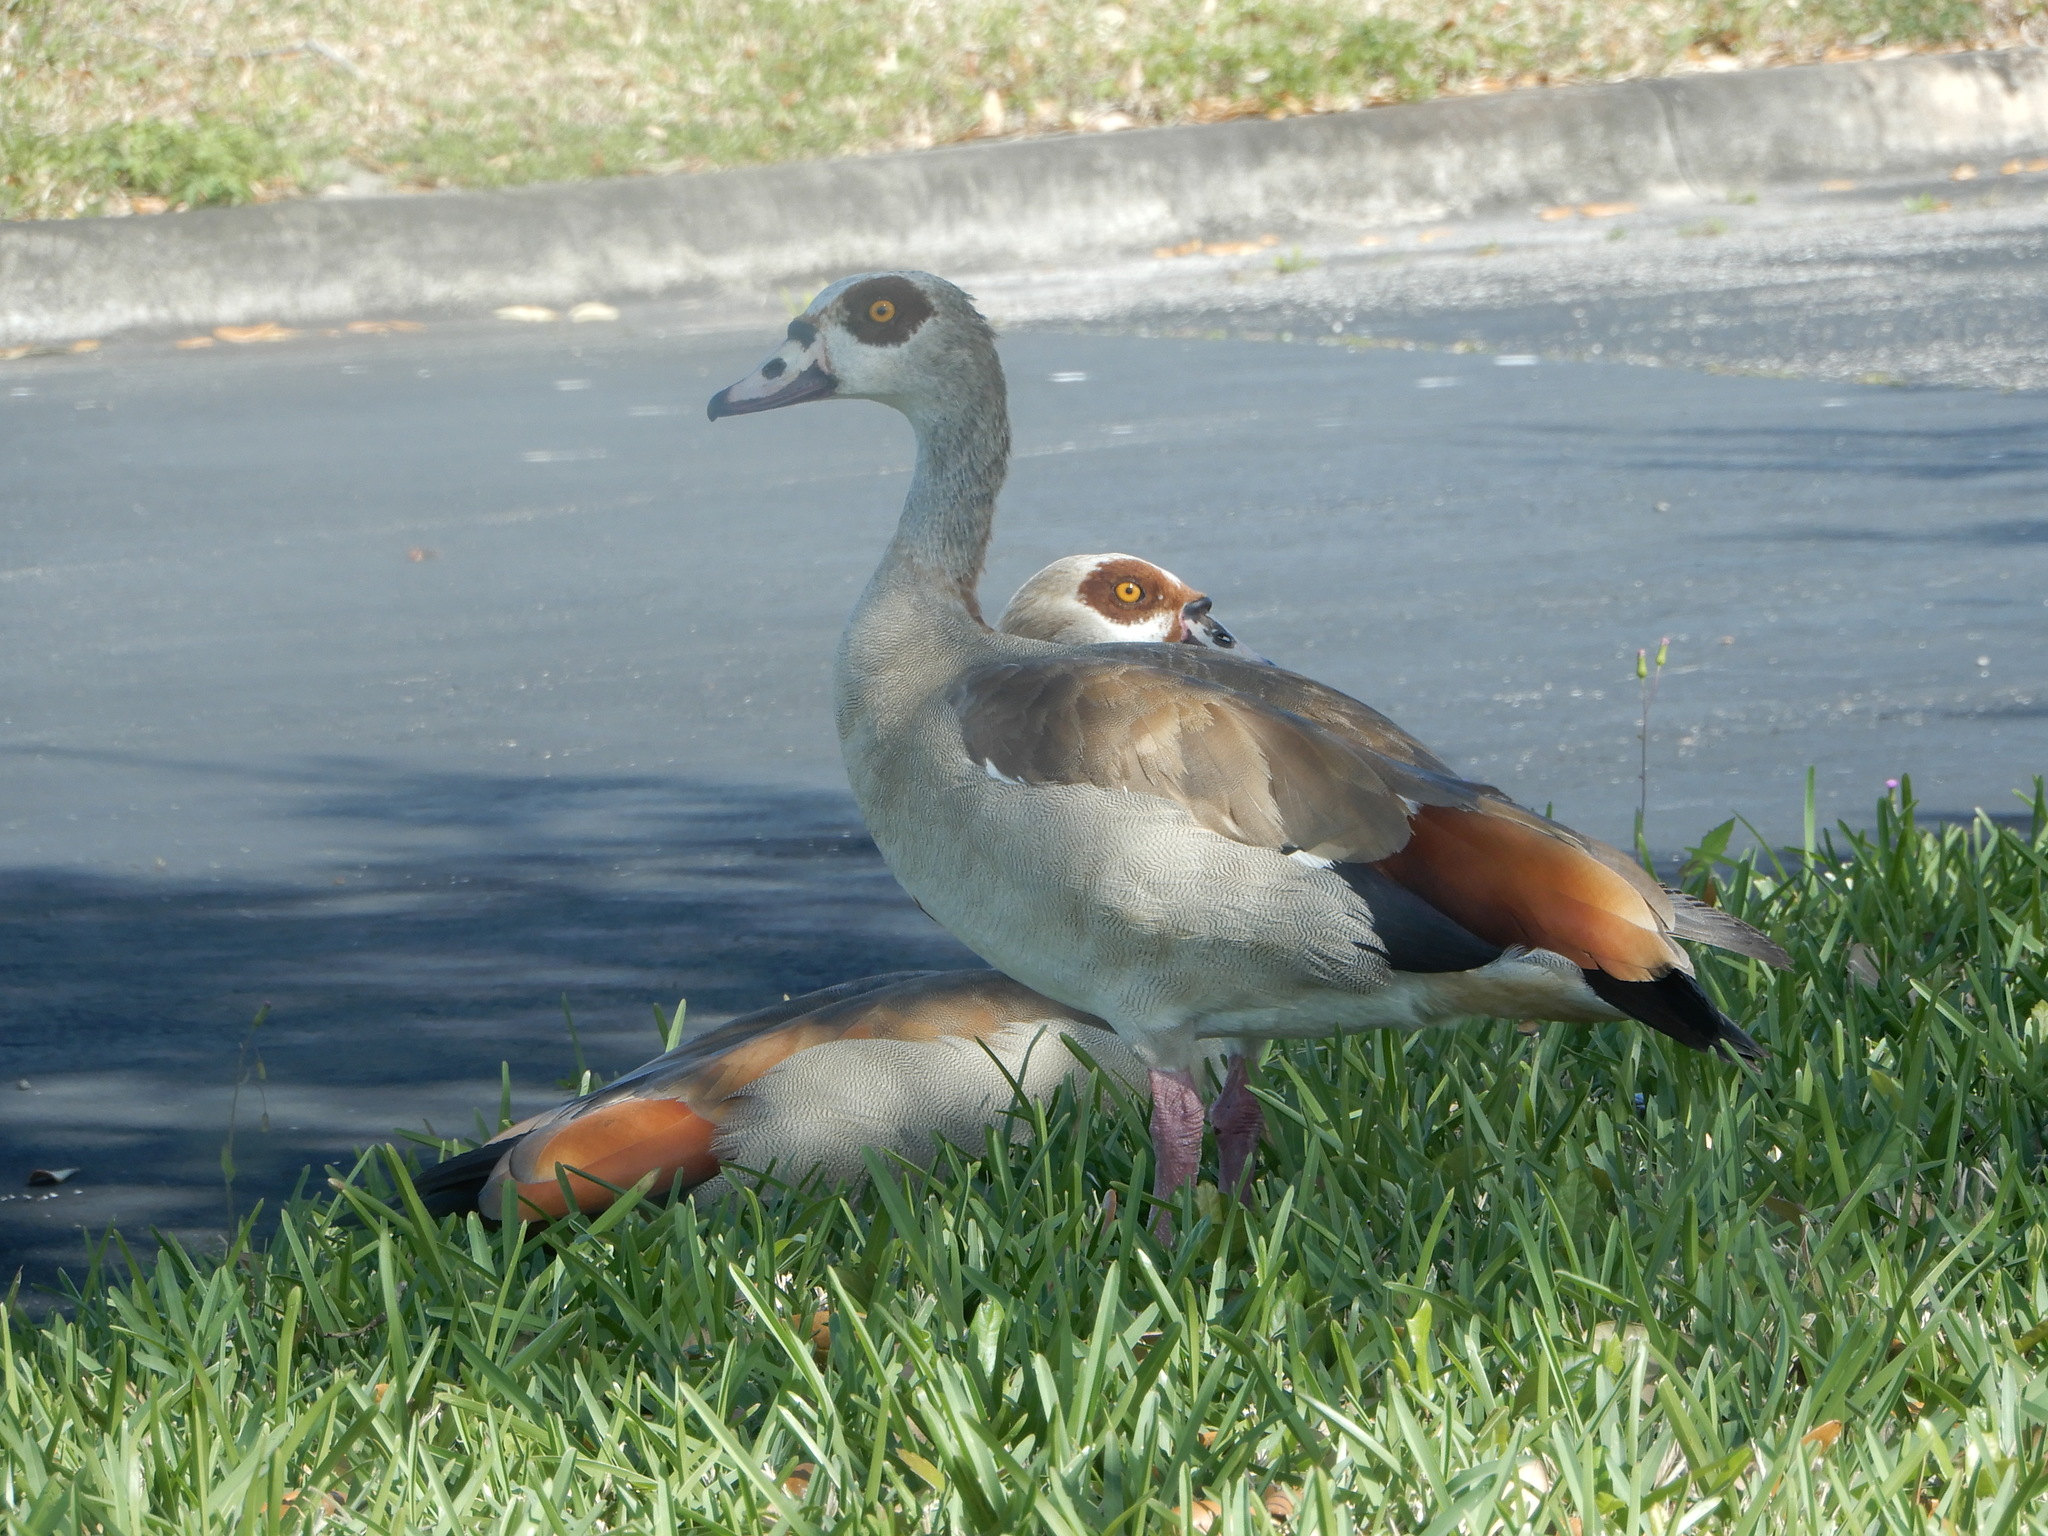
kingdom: Animalia
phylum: Chordata
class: Aves
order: Anseriformes
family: Anatidae
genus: Alopochen
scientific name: Alopochen aegyptiaca
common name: Egyptian goose
